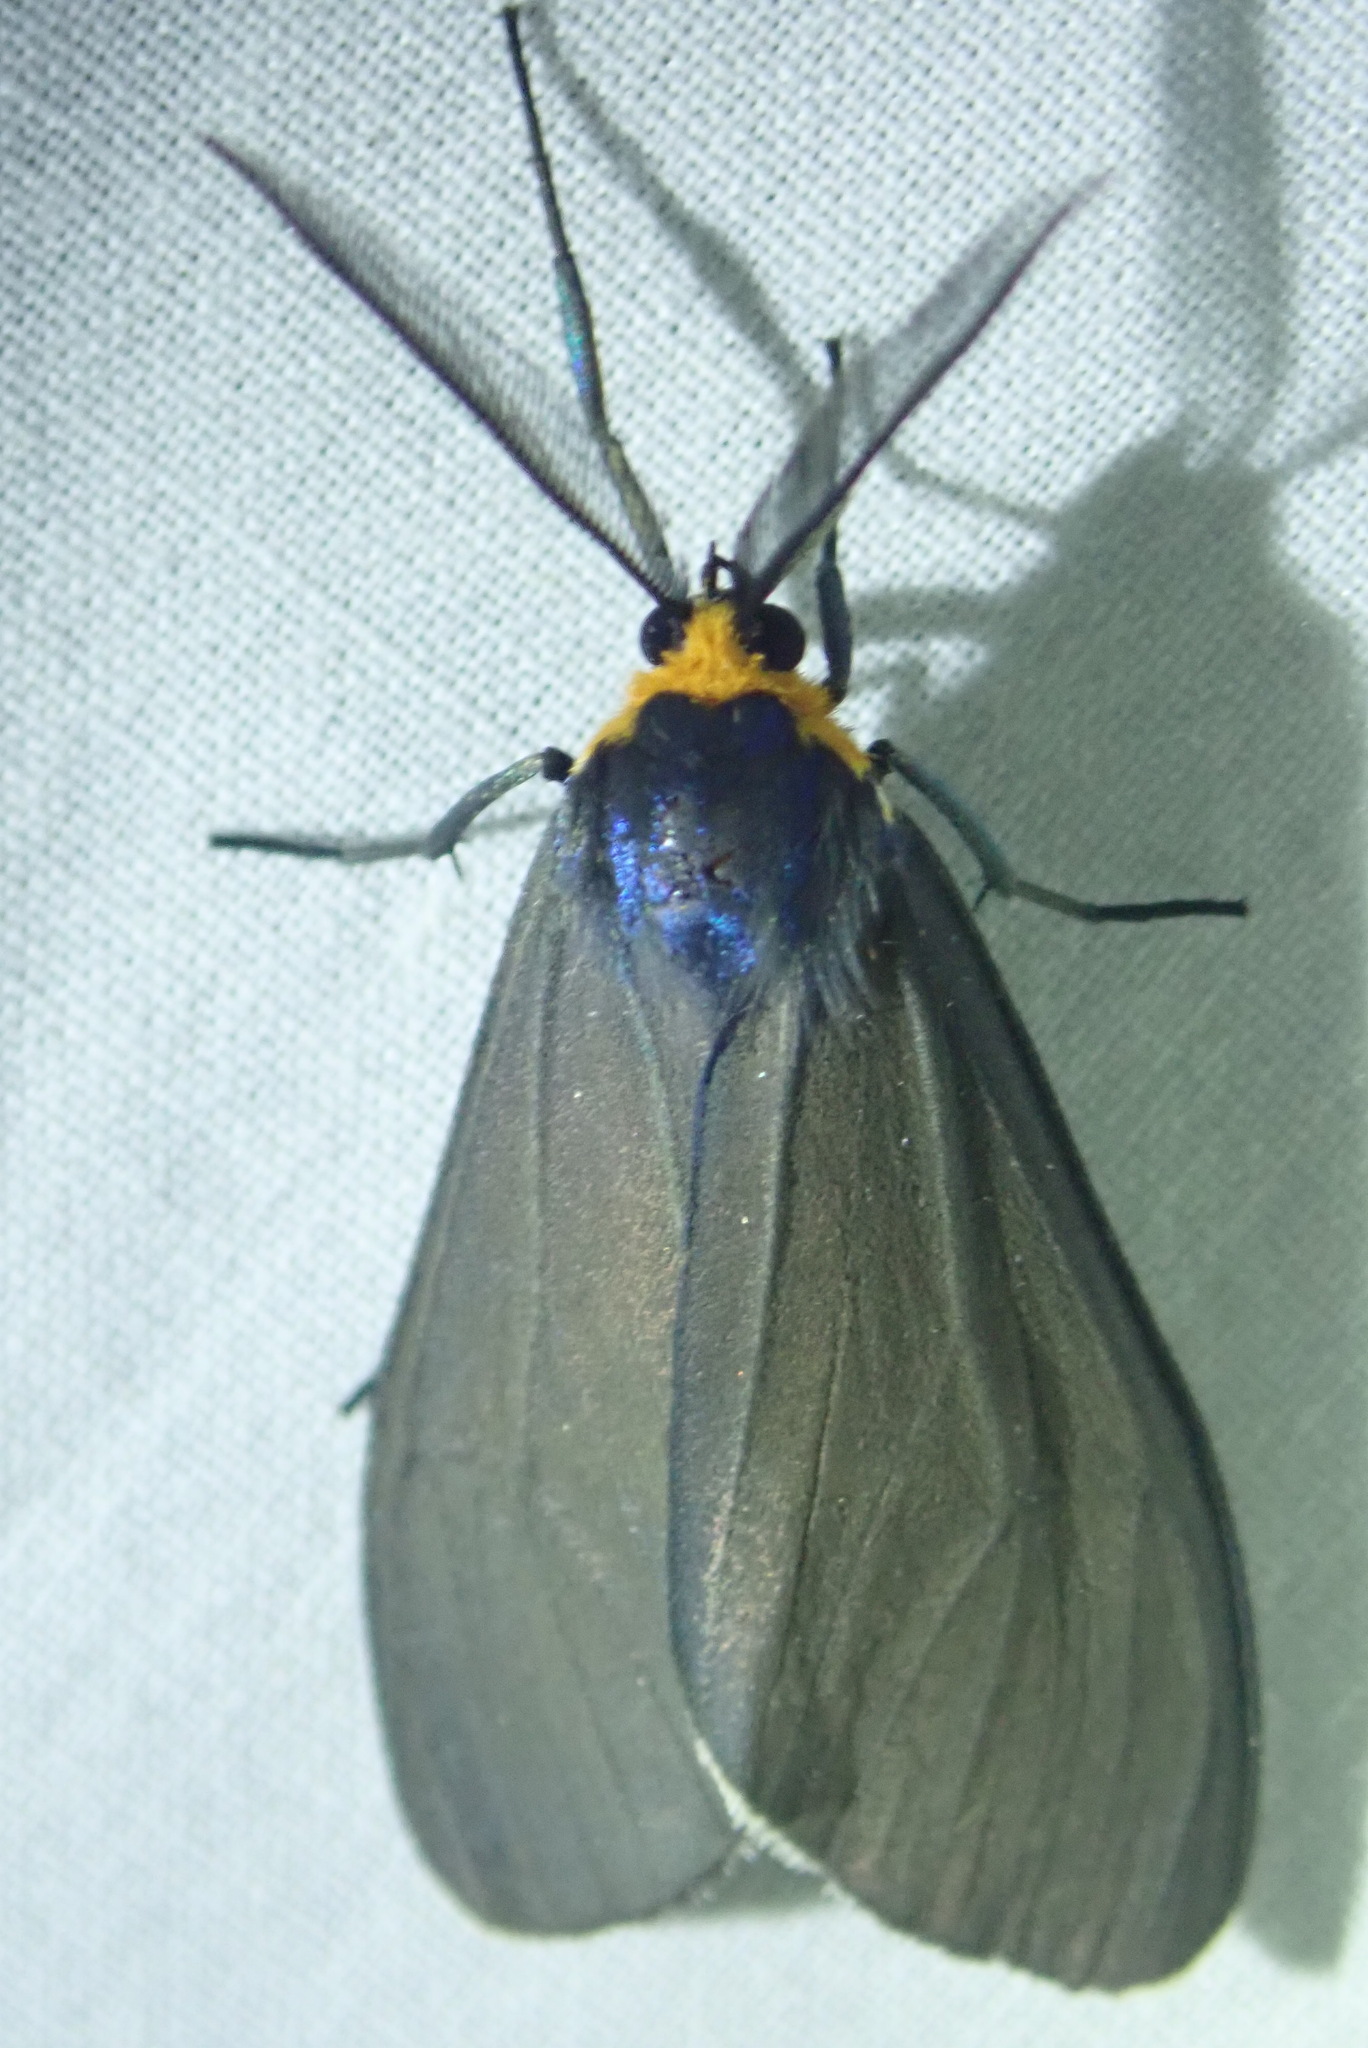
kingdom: Animalia
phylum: Arthropoda
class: Insecta
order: Lepidoptera
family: Erebidae
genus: Ctenucha
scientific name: Ctenucha virginica
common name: Virginia ctenucha moth
